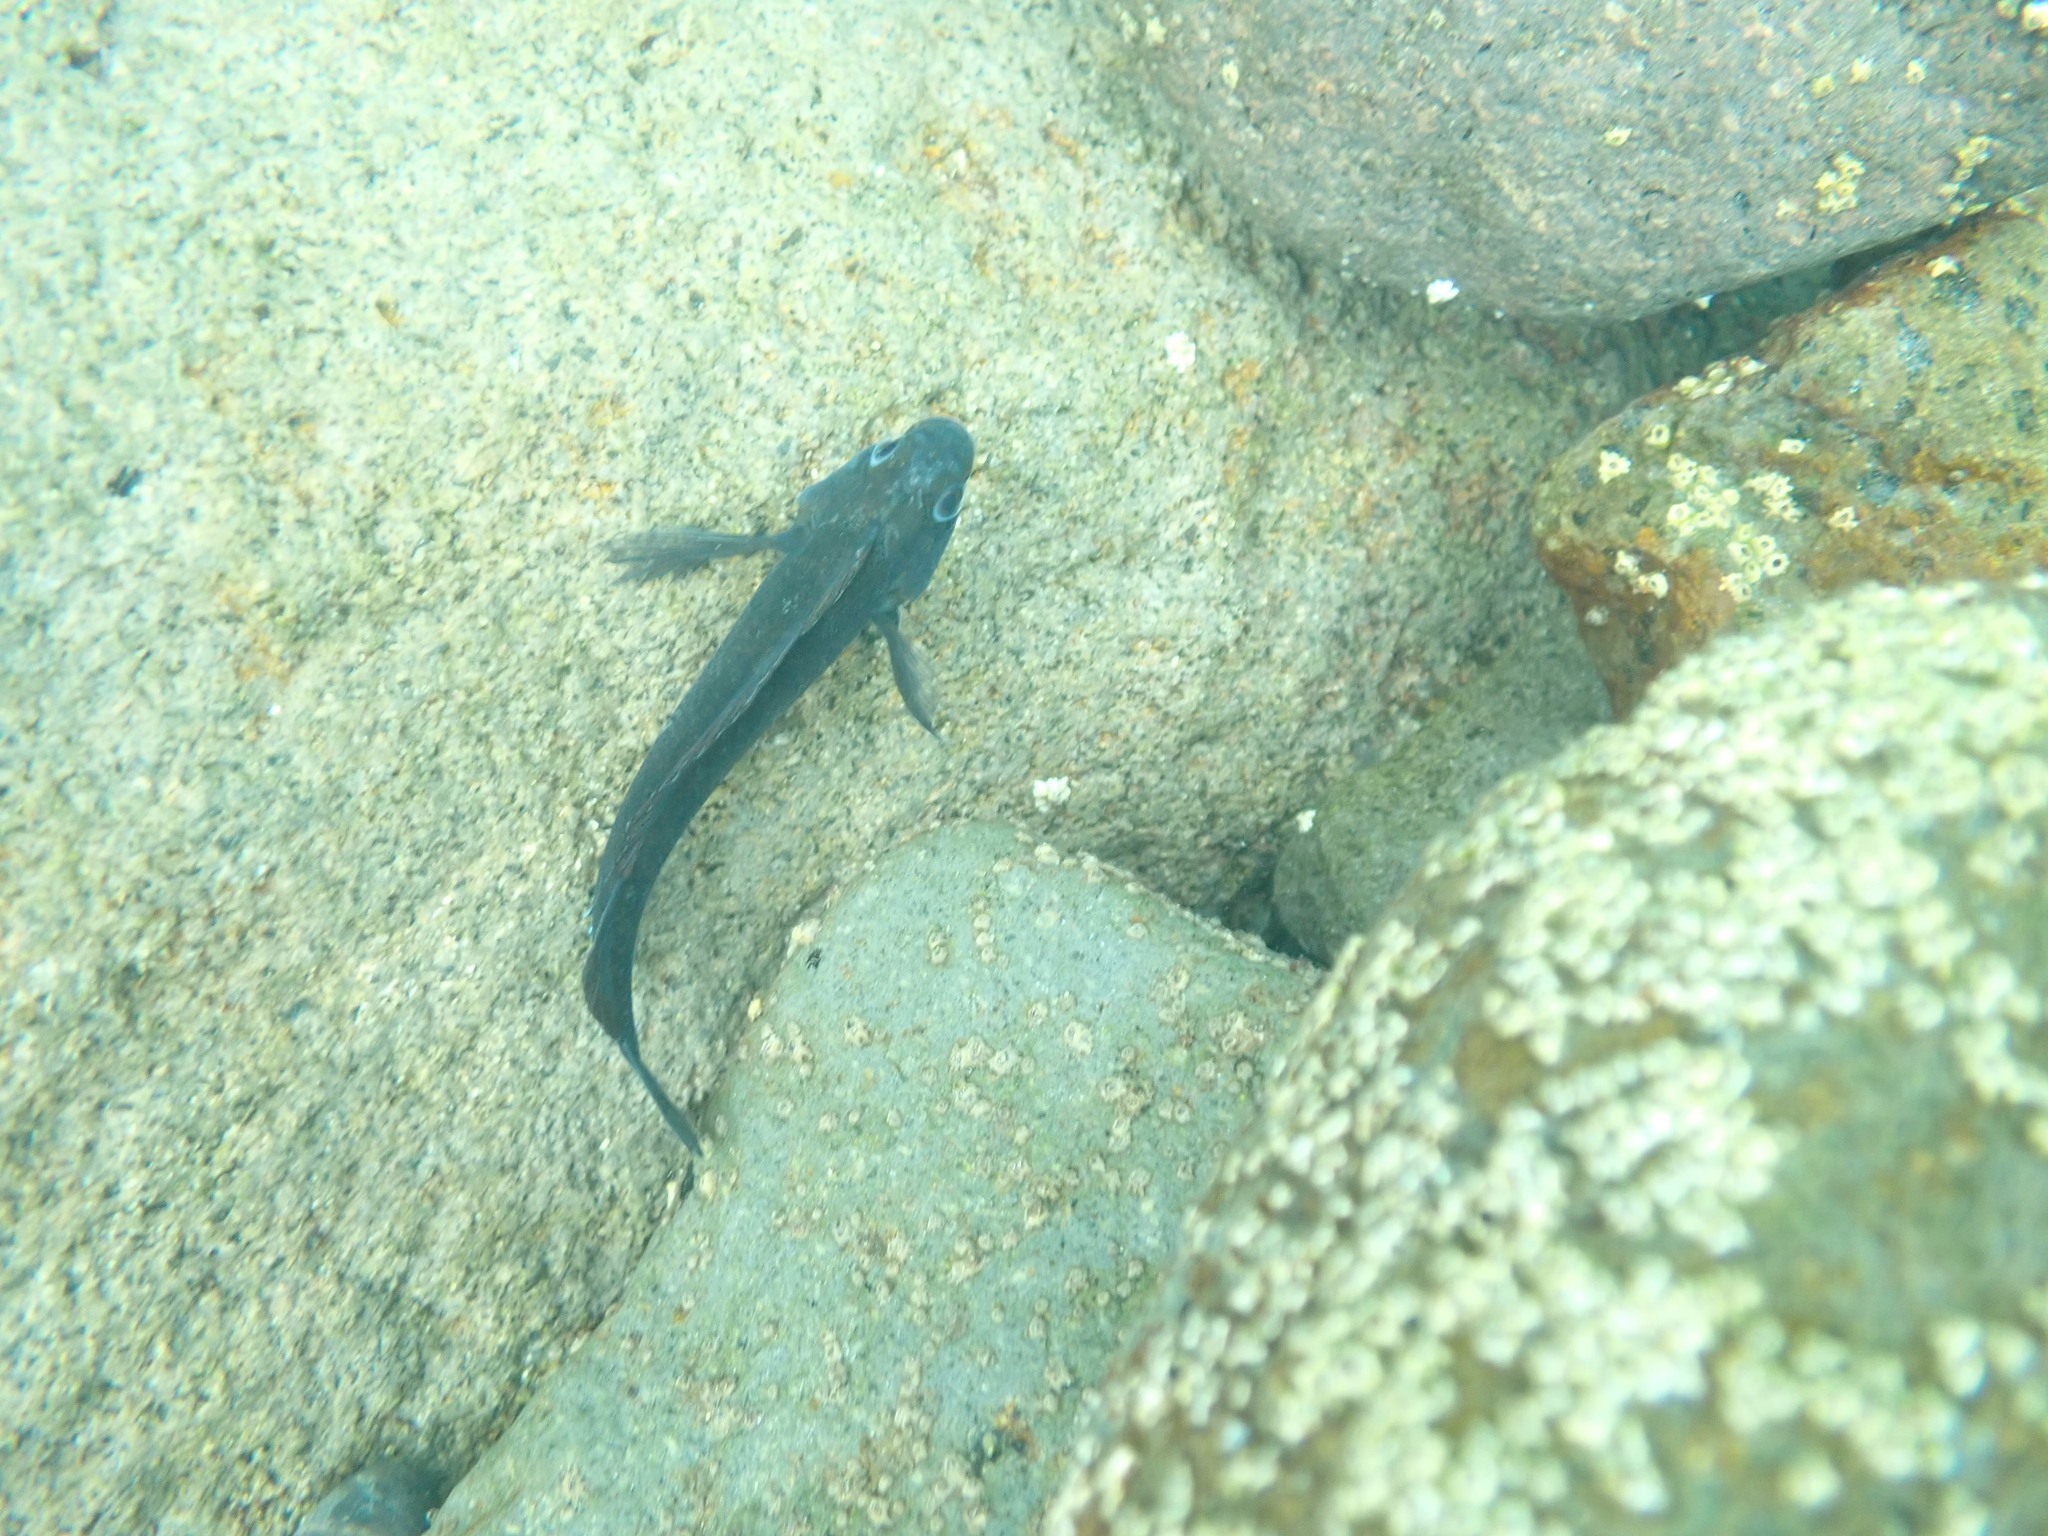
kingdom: Animalia
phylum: Chordata
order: Perciformes
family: Tripterygiidae
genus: Forsterygion
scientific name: Forsterygion lapillum
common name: Common triplefin
